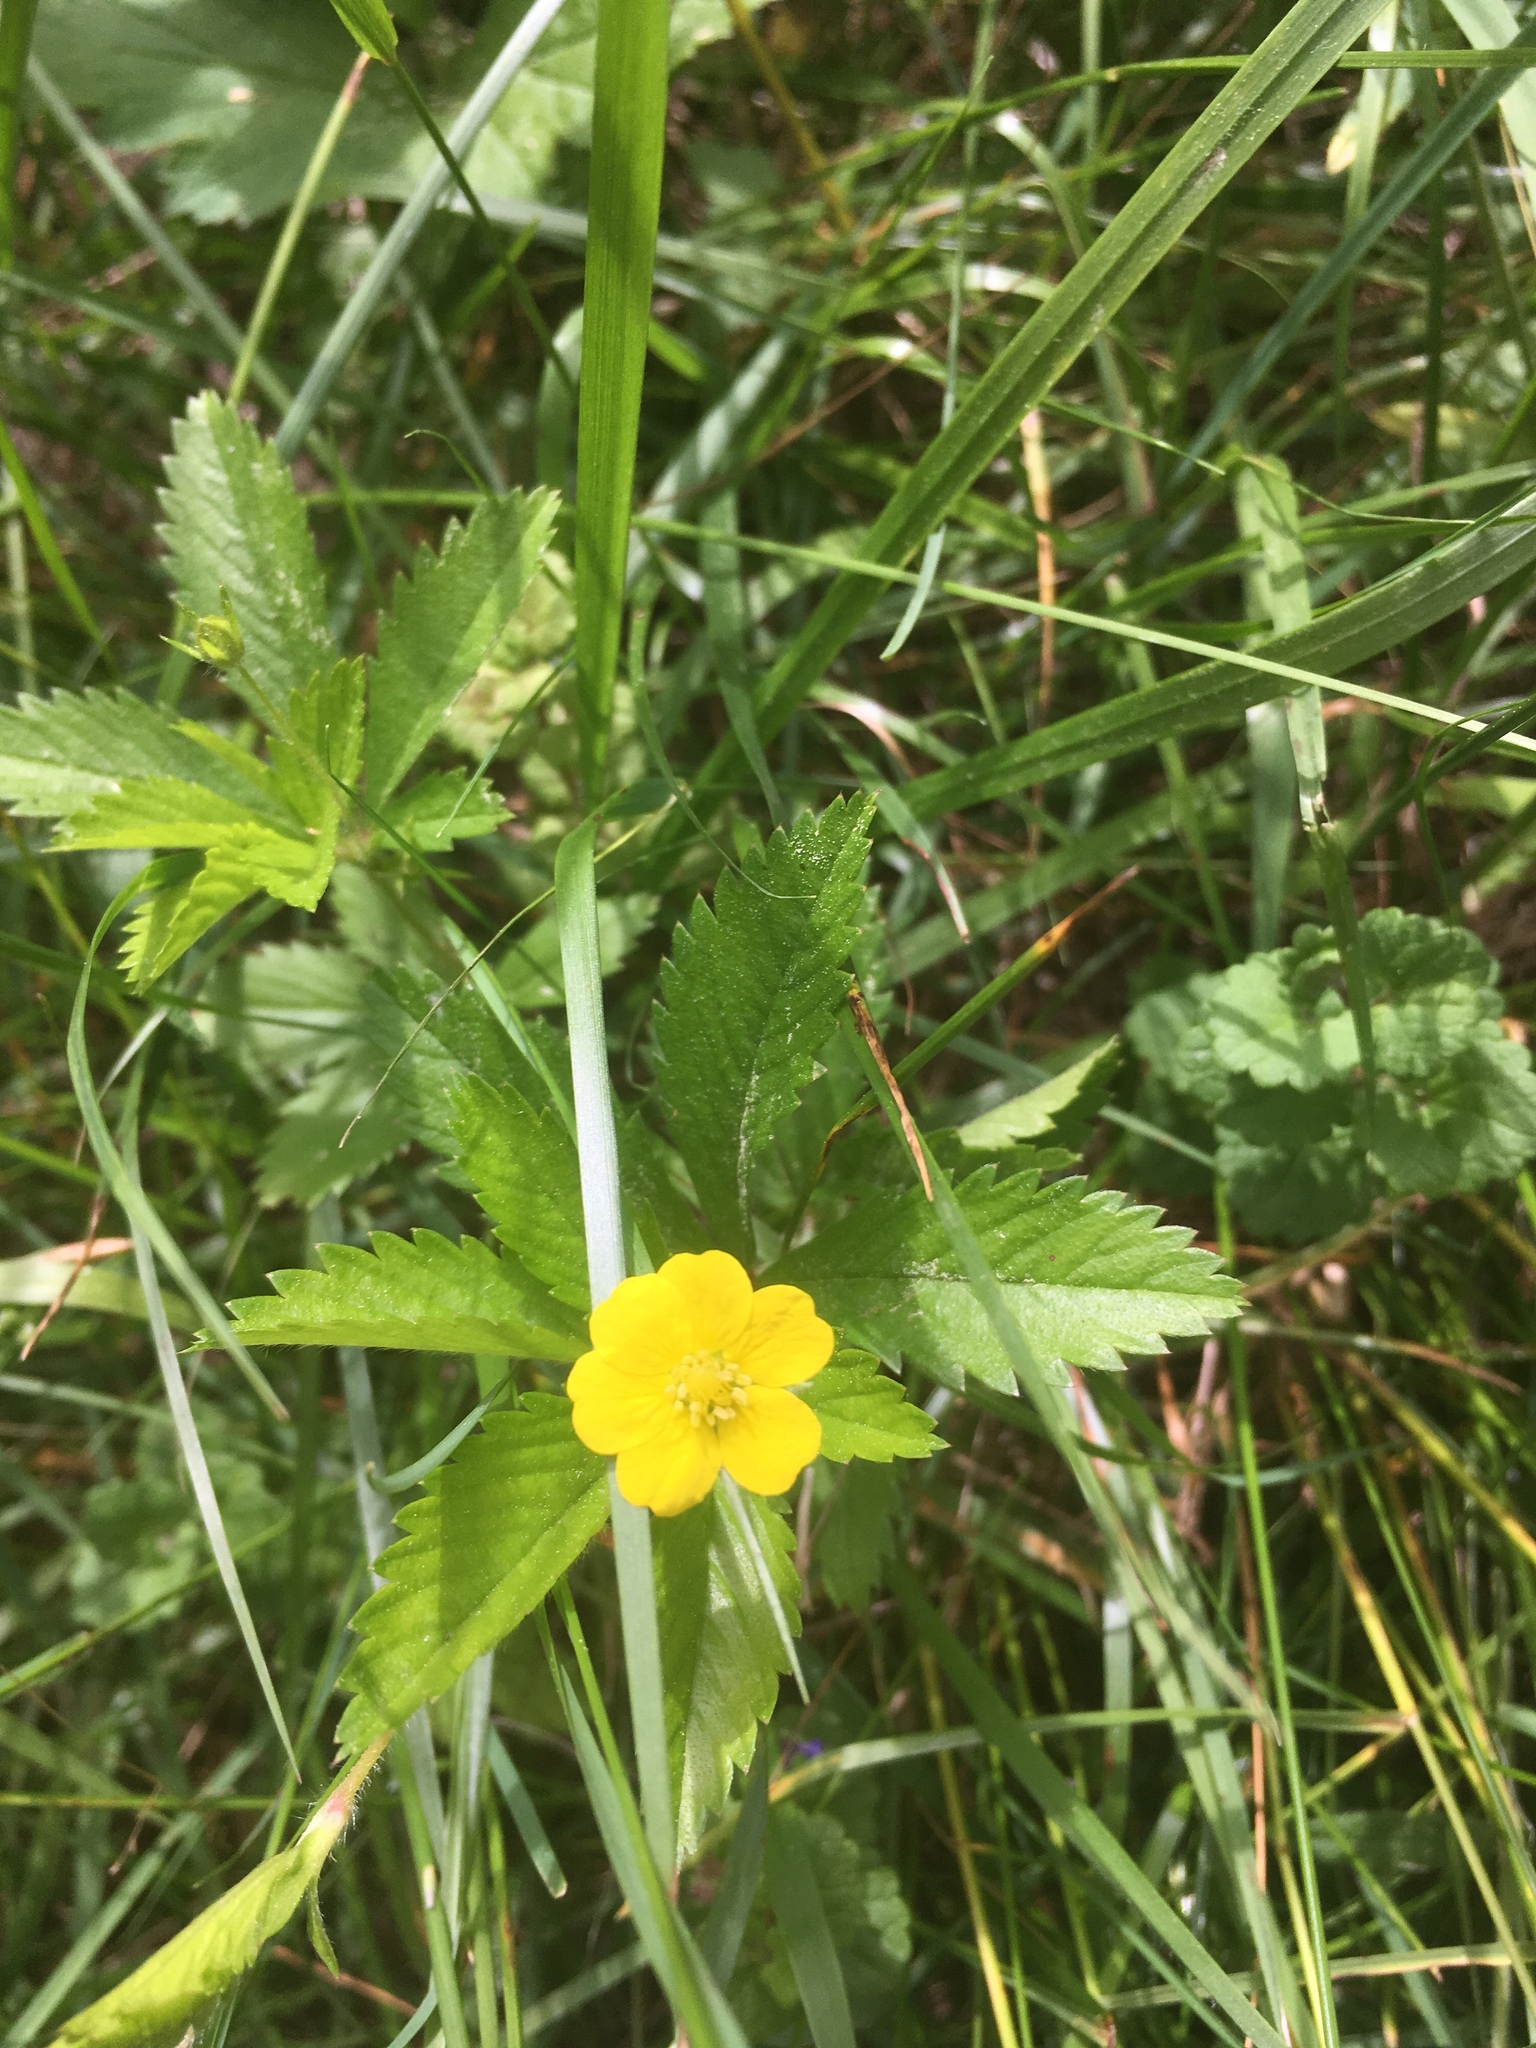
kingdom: Plantae
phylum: Tracheophyta
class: Magnoliopsida
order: Rosales
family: Rosaceae
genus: Potentilla
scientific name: Potentilla simplex
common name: Old field cinquefoil
